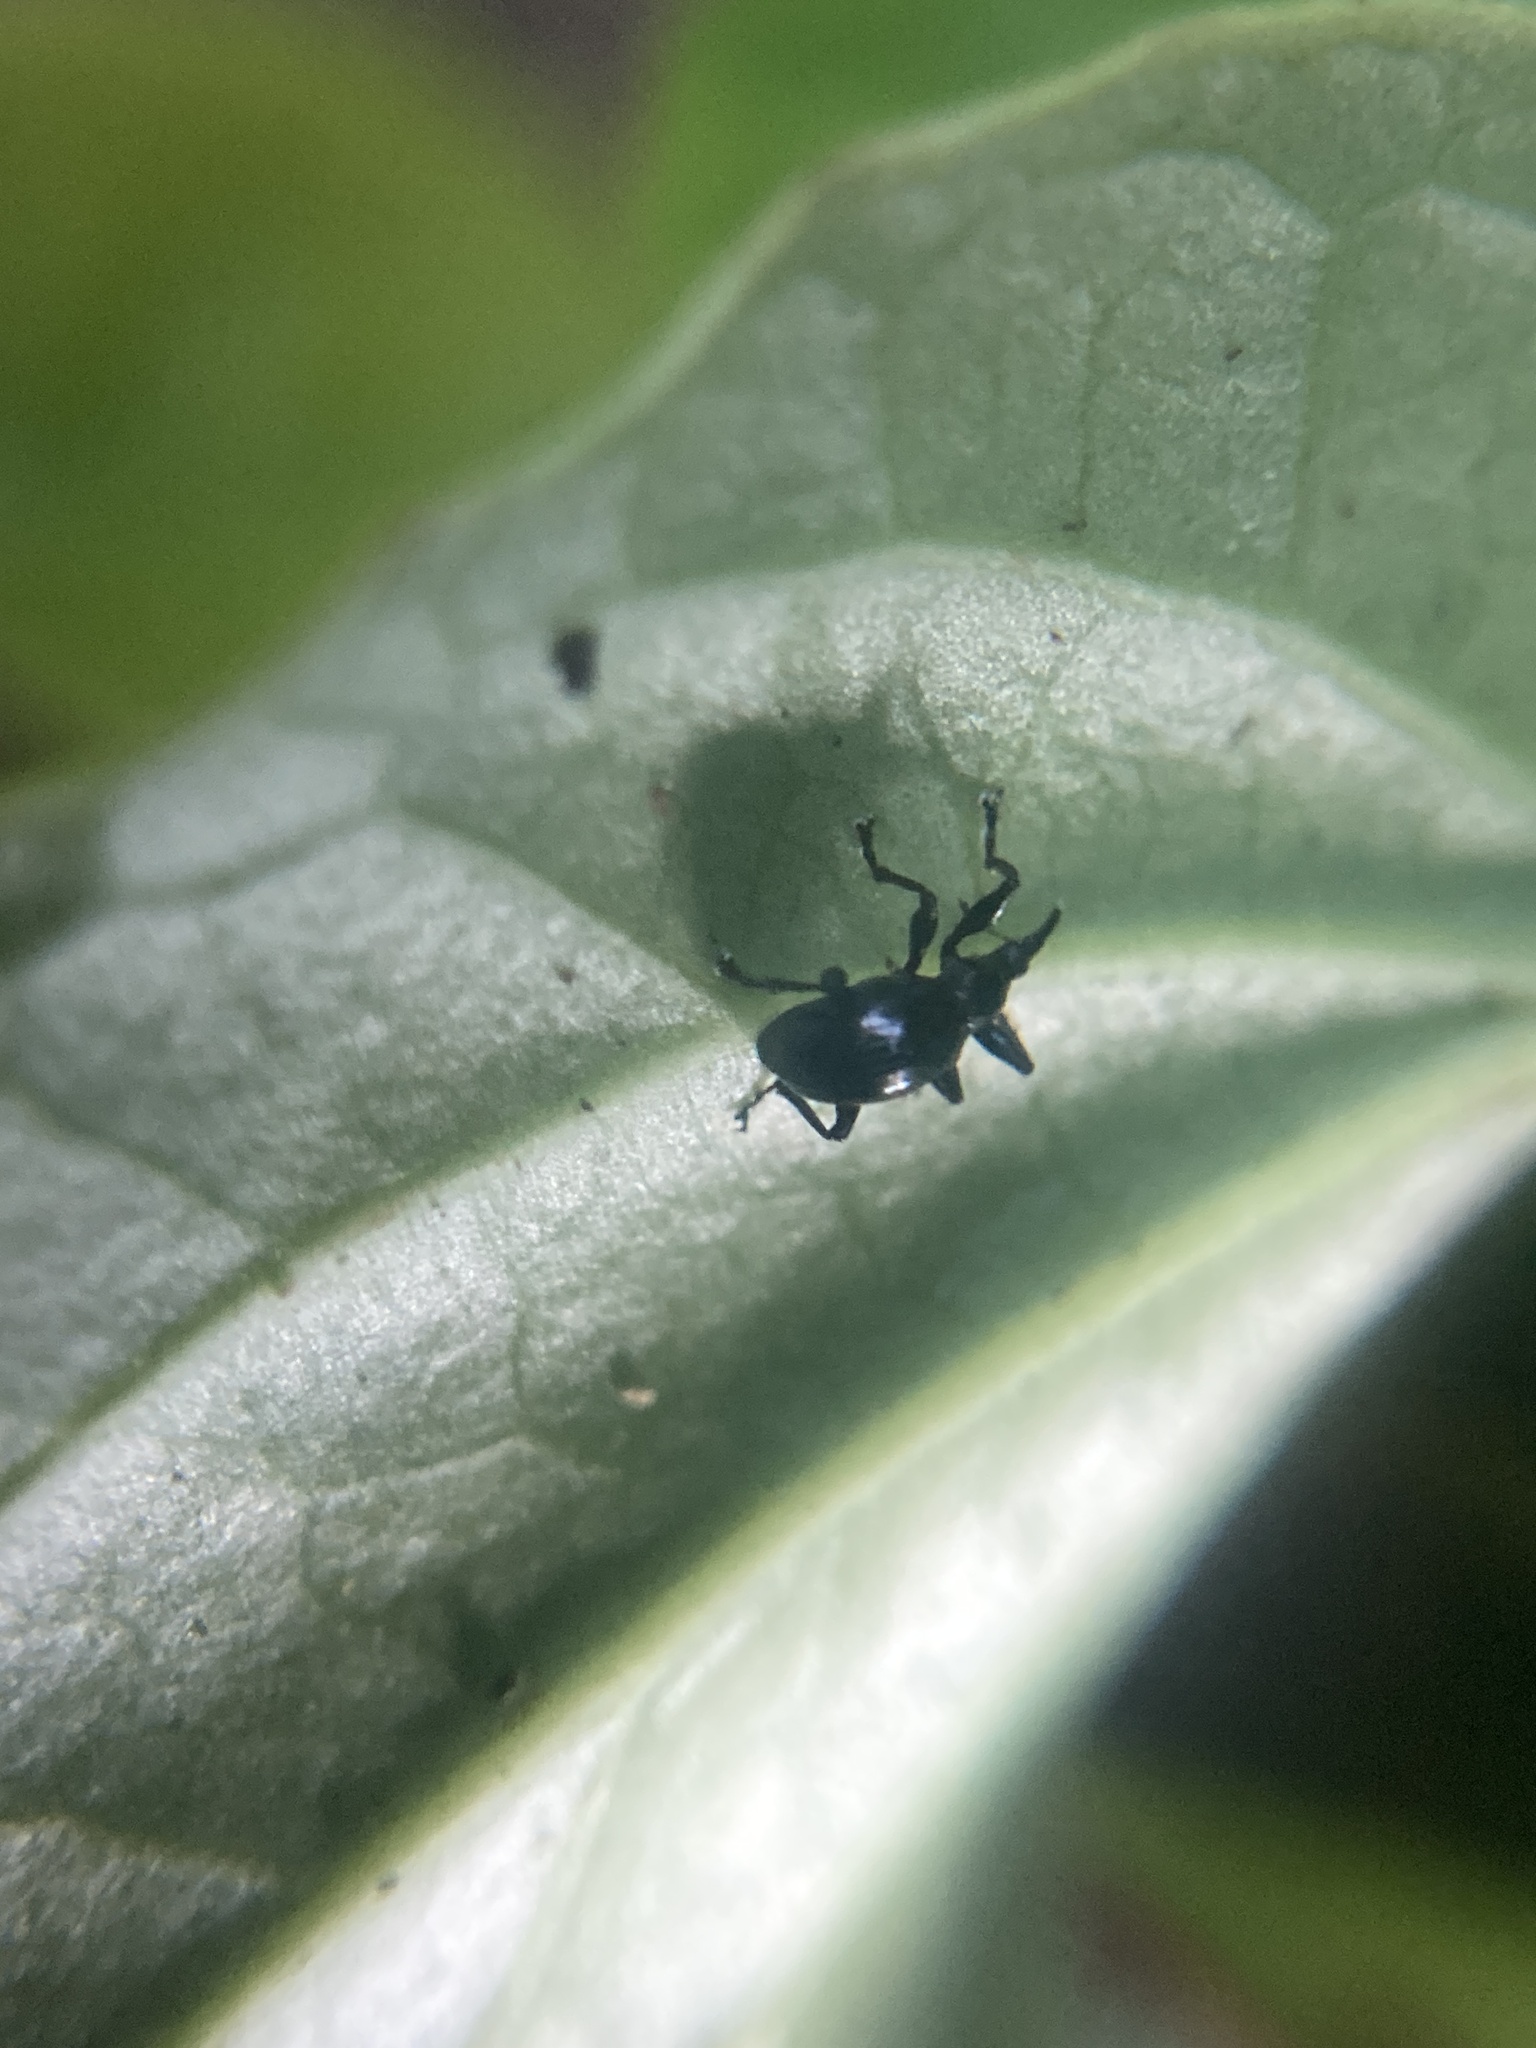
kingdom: Animalia
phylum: Arthropoda
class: Insecta
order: Coleoptera
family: Brentidae
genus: Nanomyrmacyba
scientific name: Nanomyrmacyba
